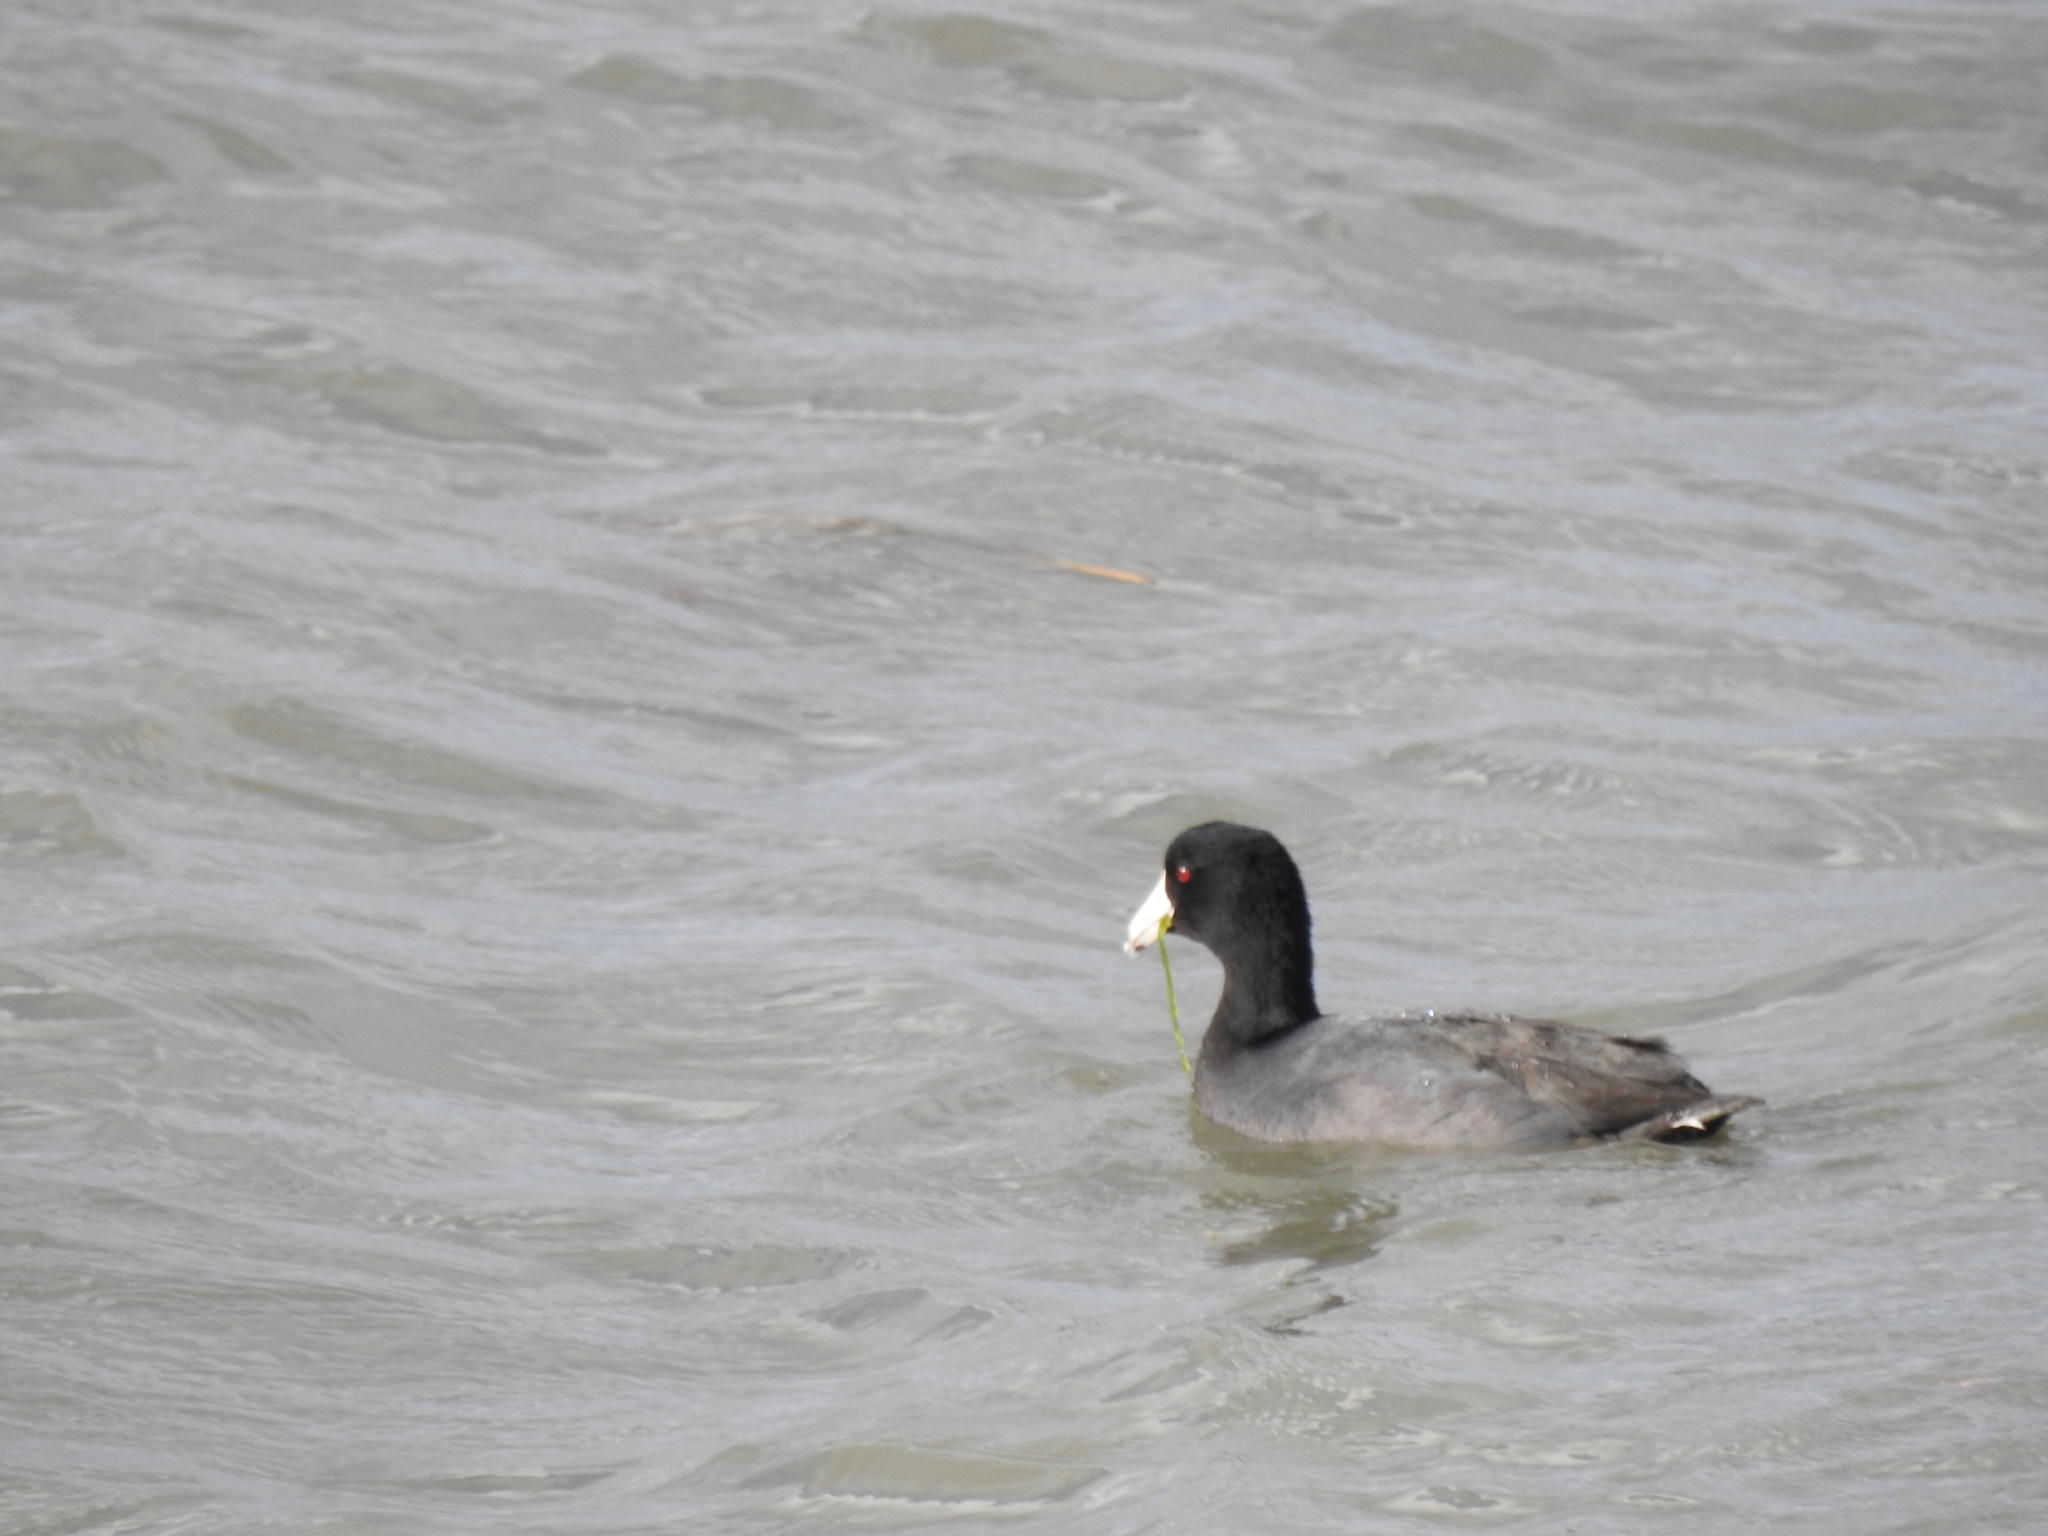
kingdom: Animalia
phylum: Chordata
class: Aves
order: Gruiformes
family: Rallidae
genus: Fulica
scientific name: Fulica americana
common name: American coot
